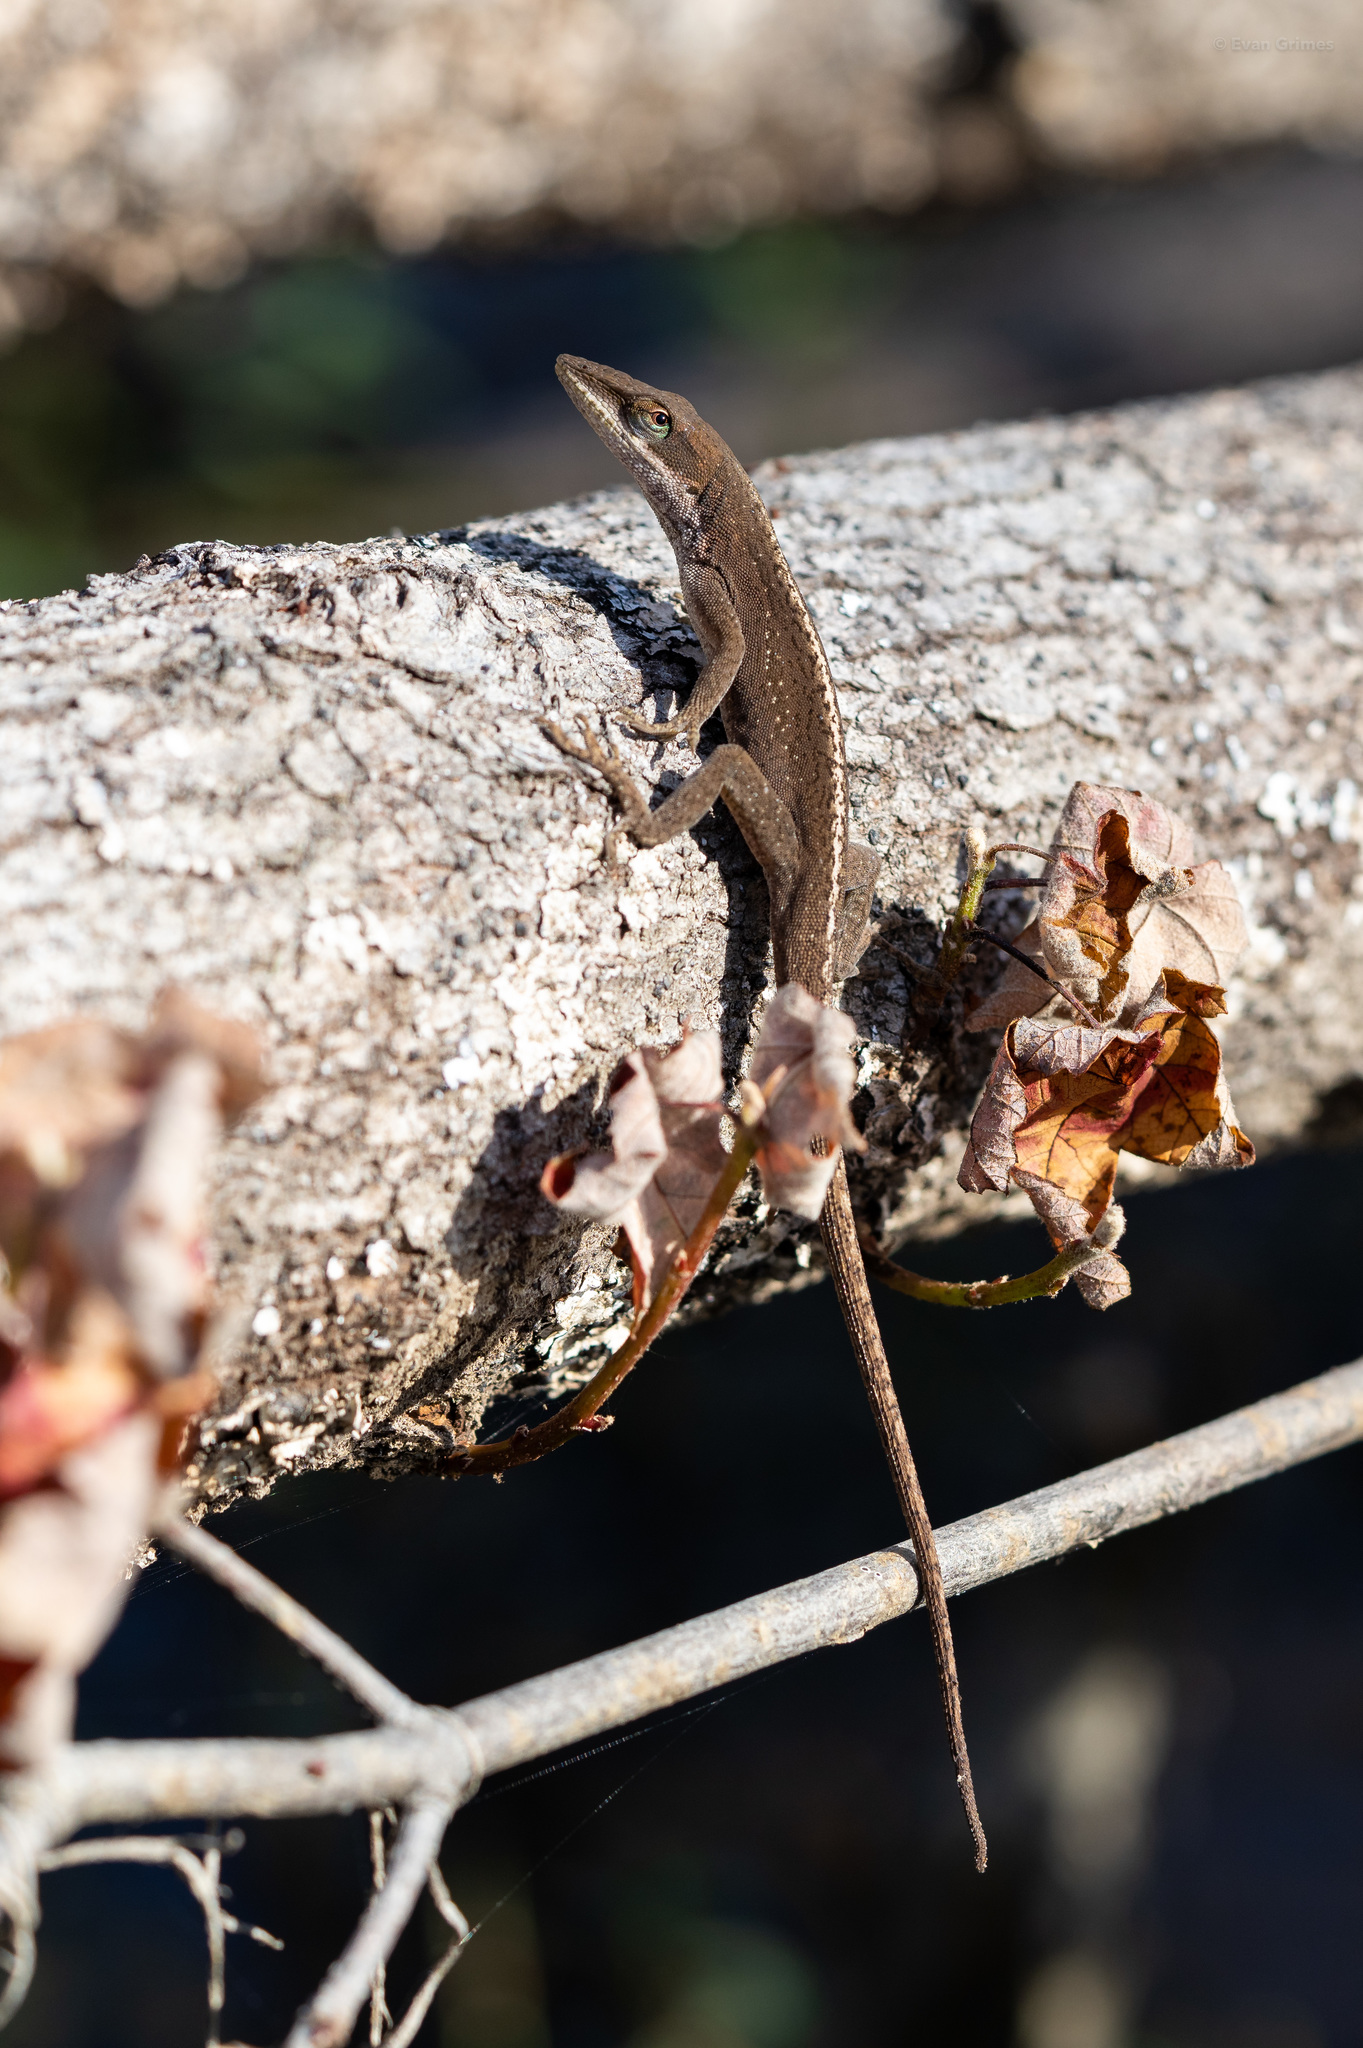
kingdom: Animalia
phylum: Chordata
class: Squamata
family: Dactyloidae
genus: Anolis
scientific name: Anolis carolinensis
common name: Green anole
